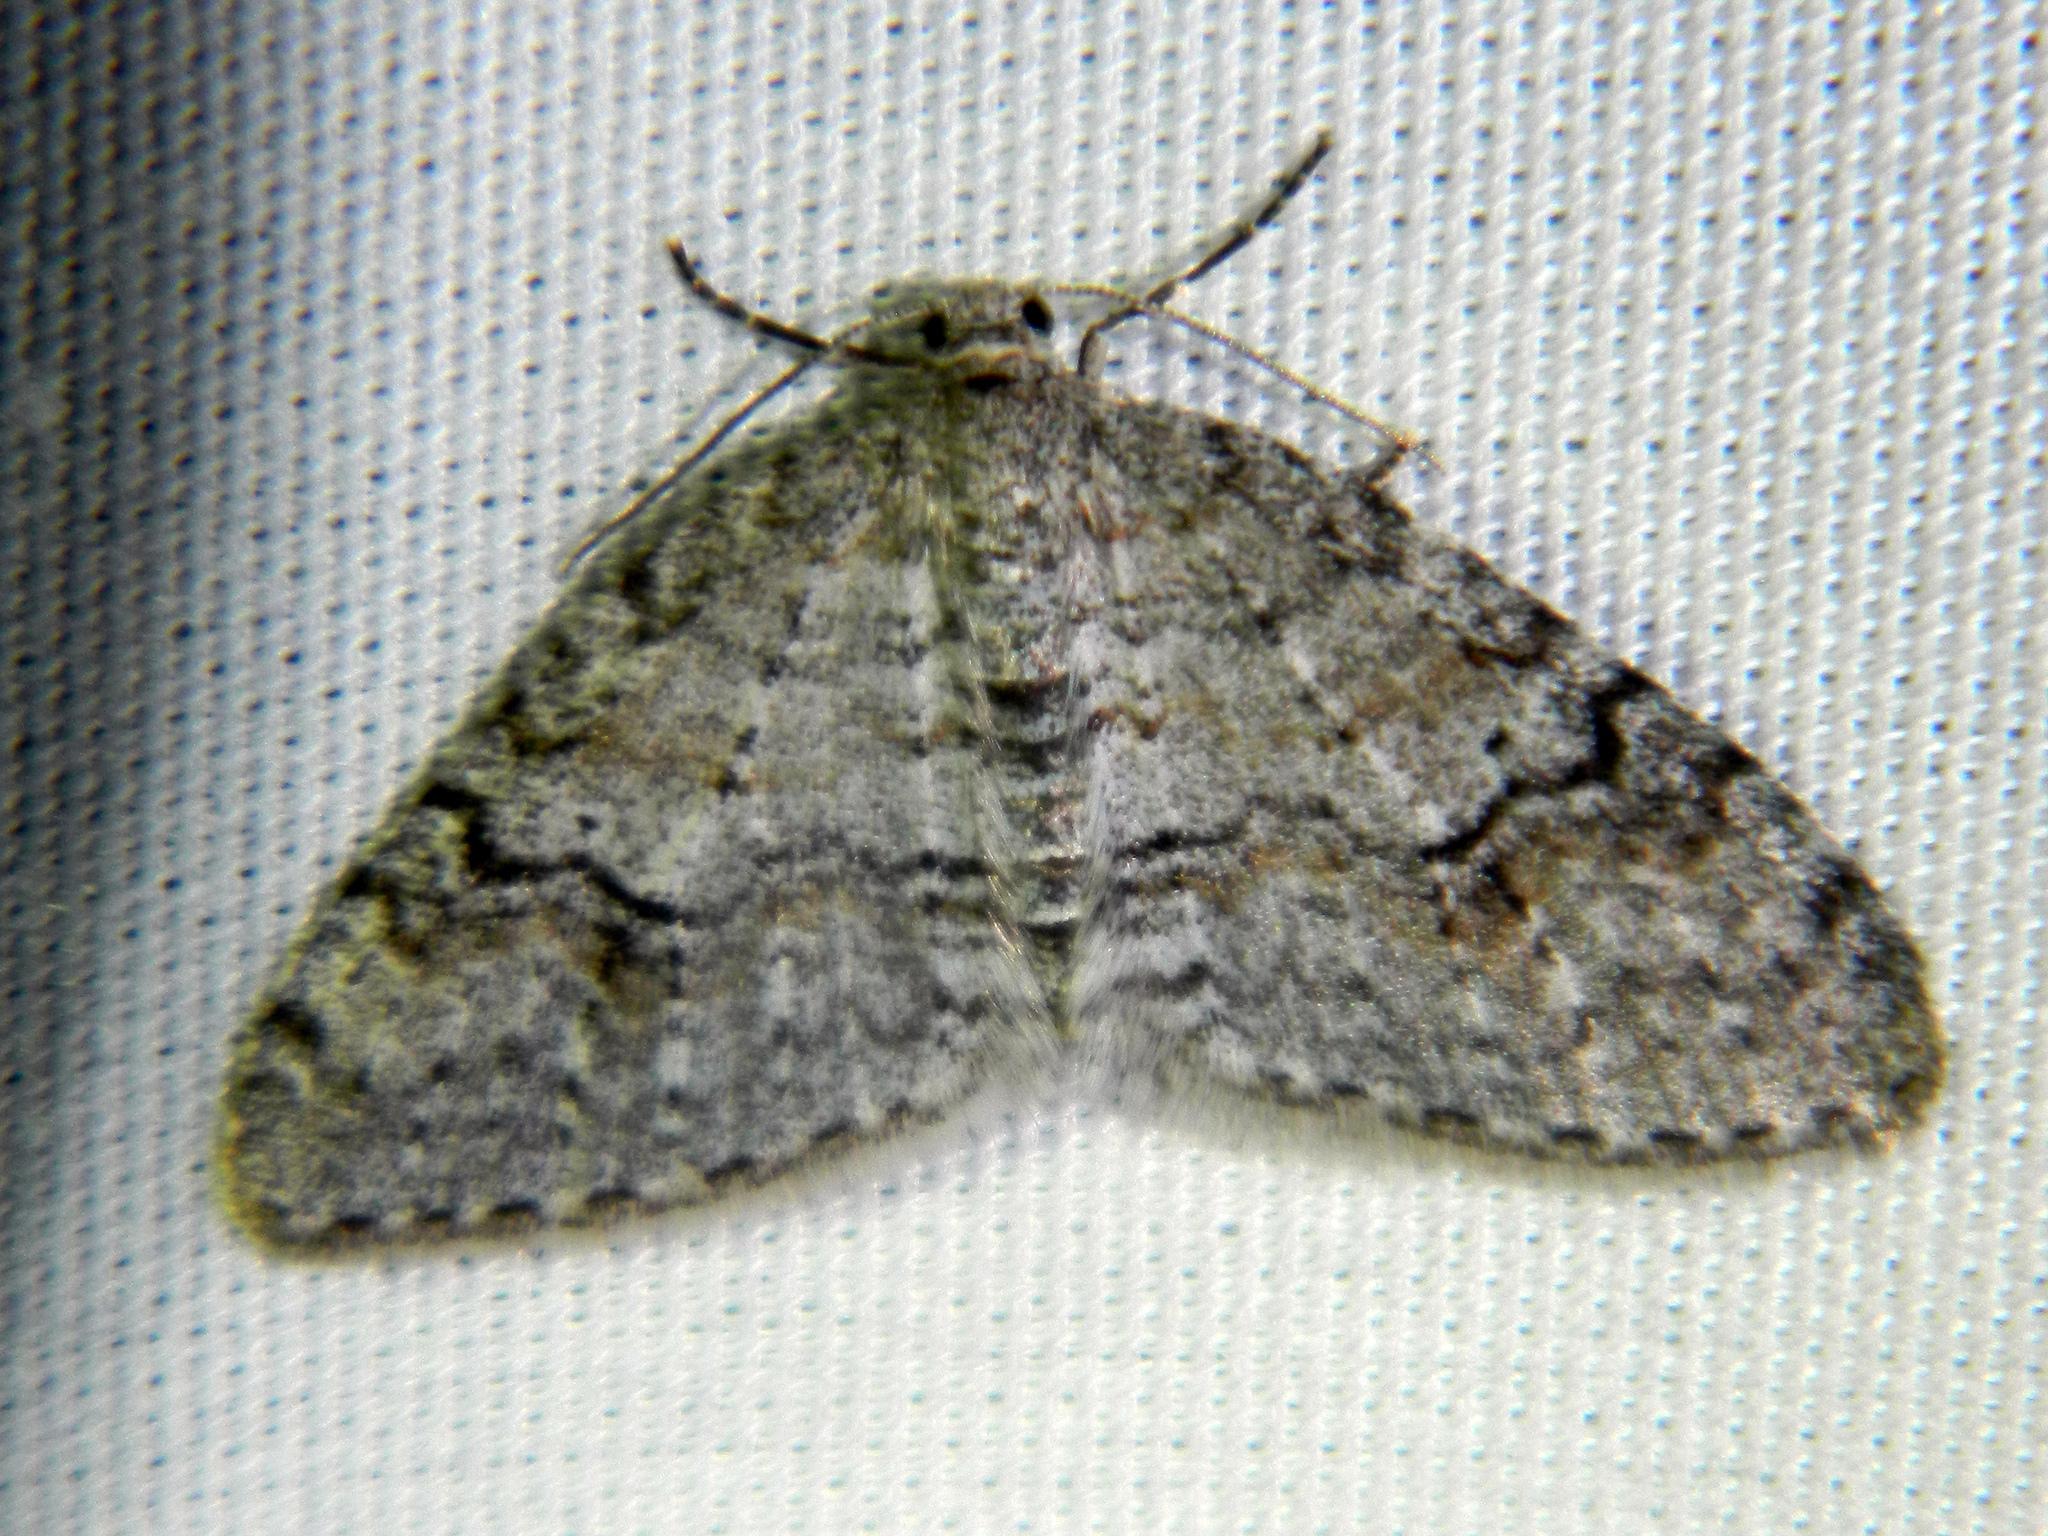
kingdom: Animalia
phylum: Arthropoda
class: Insecta
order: Lepidoptera
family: Geometridae
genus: Venusia
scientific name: Venusia comptaria
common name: Brown-shaded carpet
